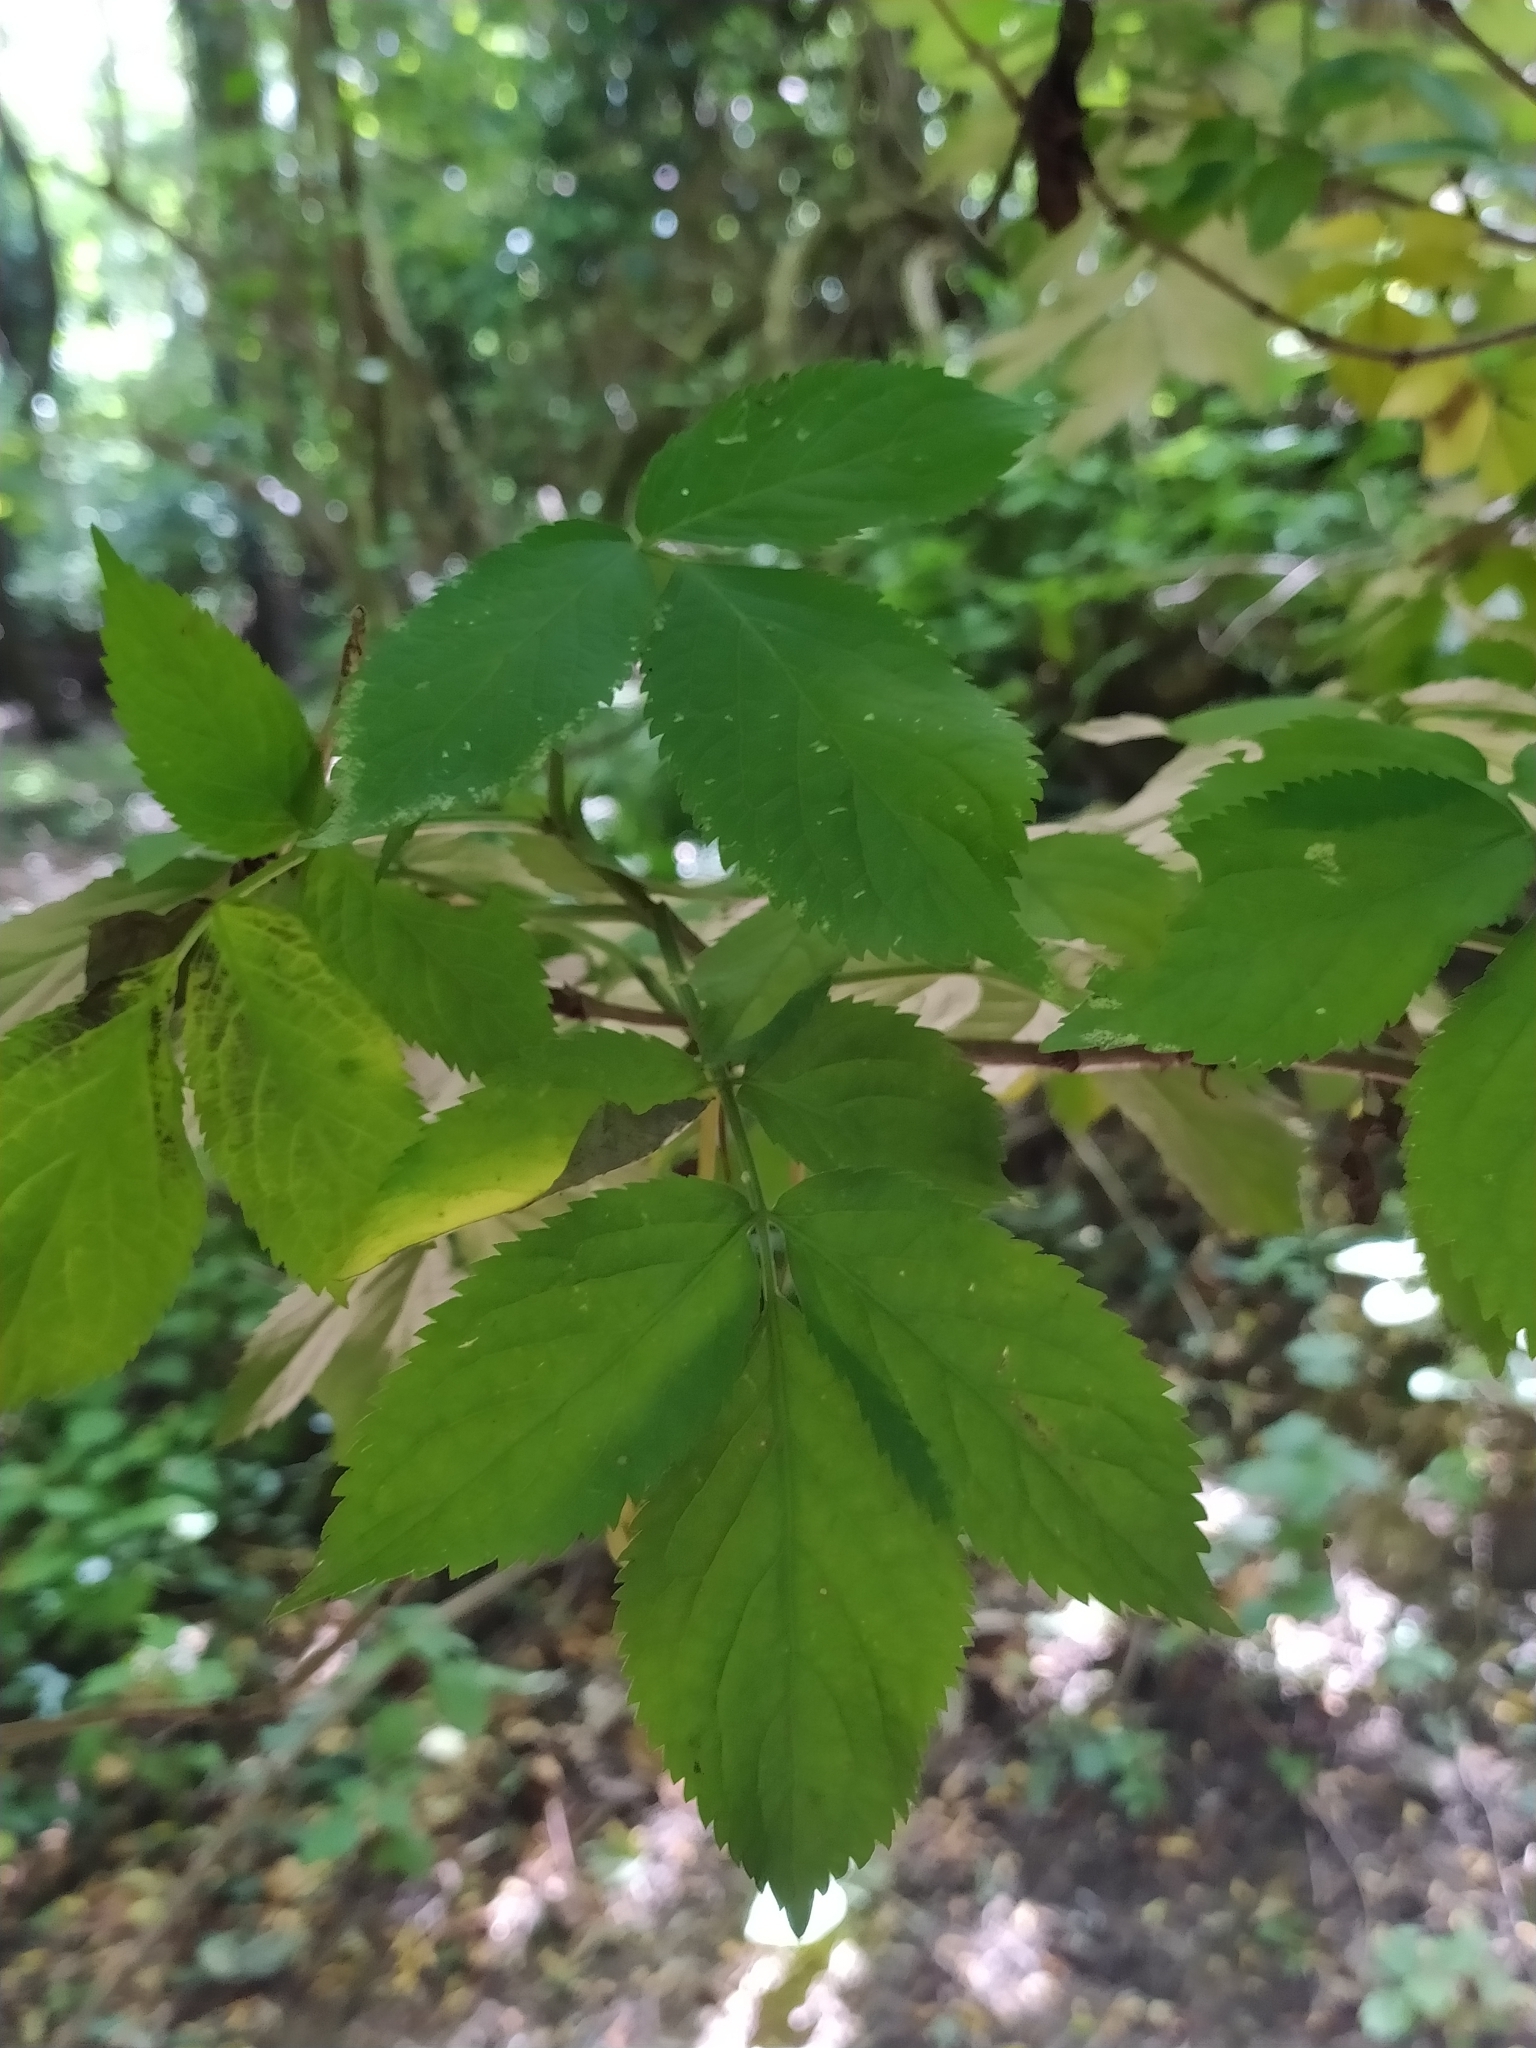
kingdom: Plantae
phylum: Tracheophyta
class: Magnoliopsida
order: Dipsacales
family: Viburnaceae
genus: Sambucus
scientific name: Sambucus nigra
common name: Elder
